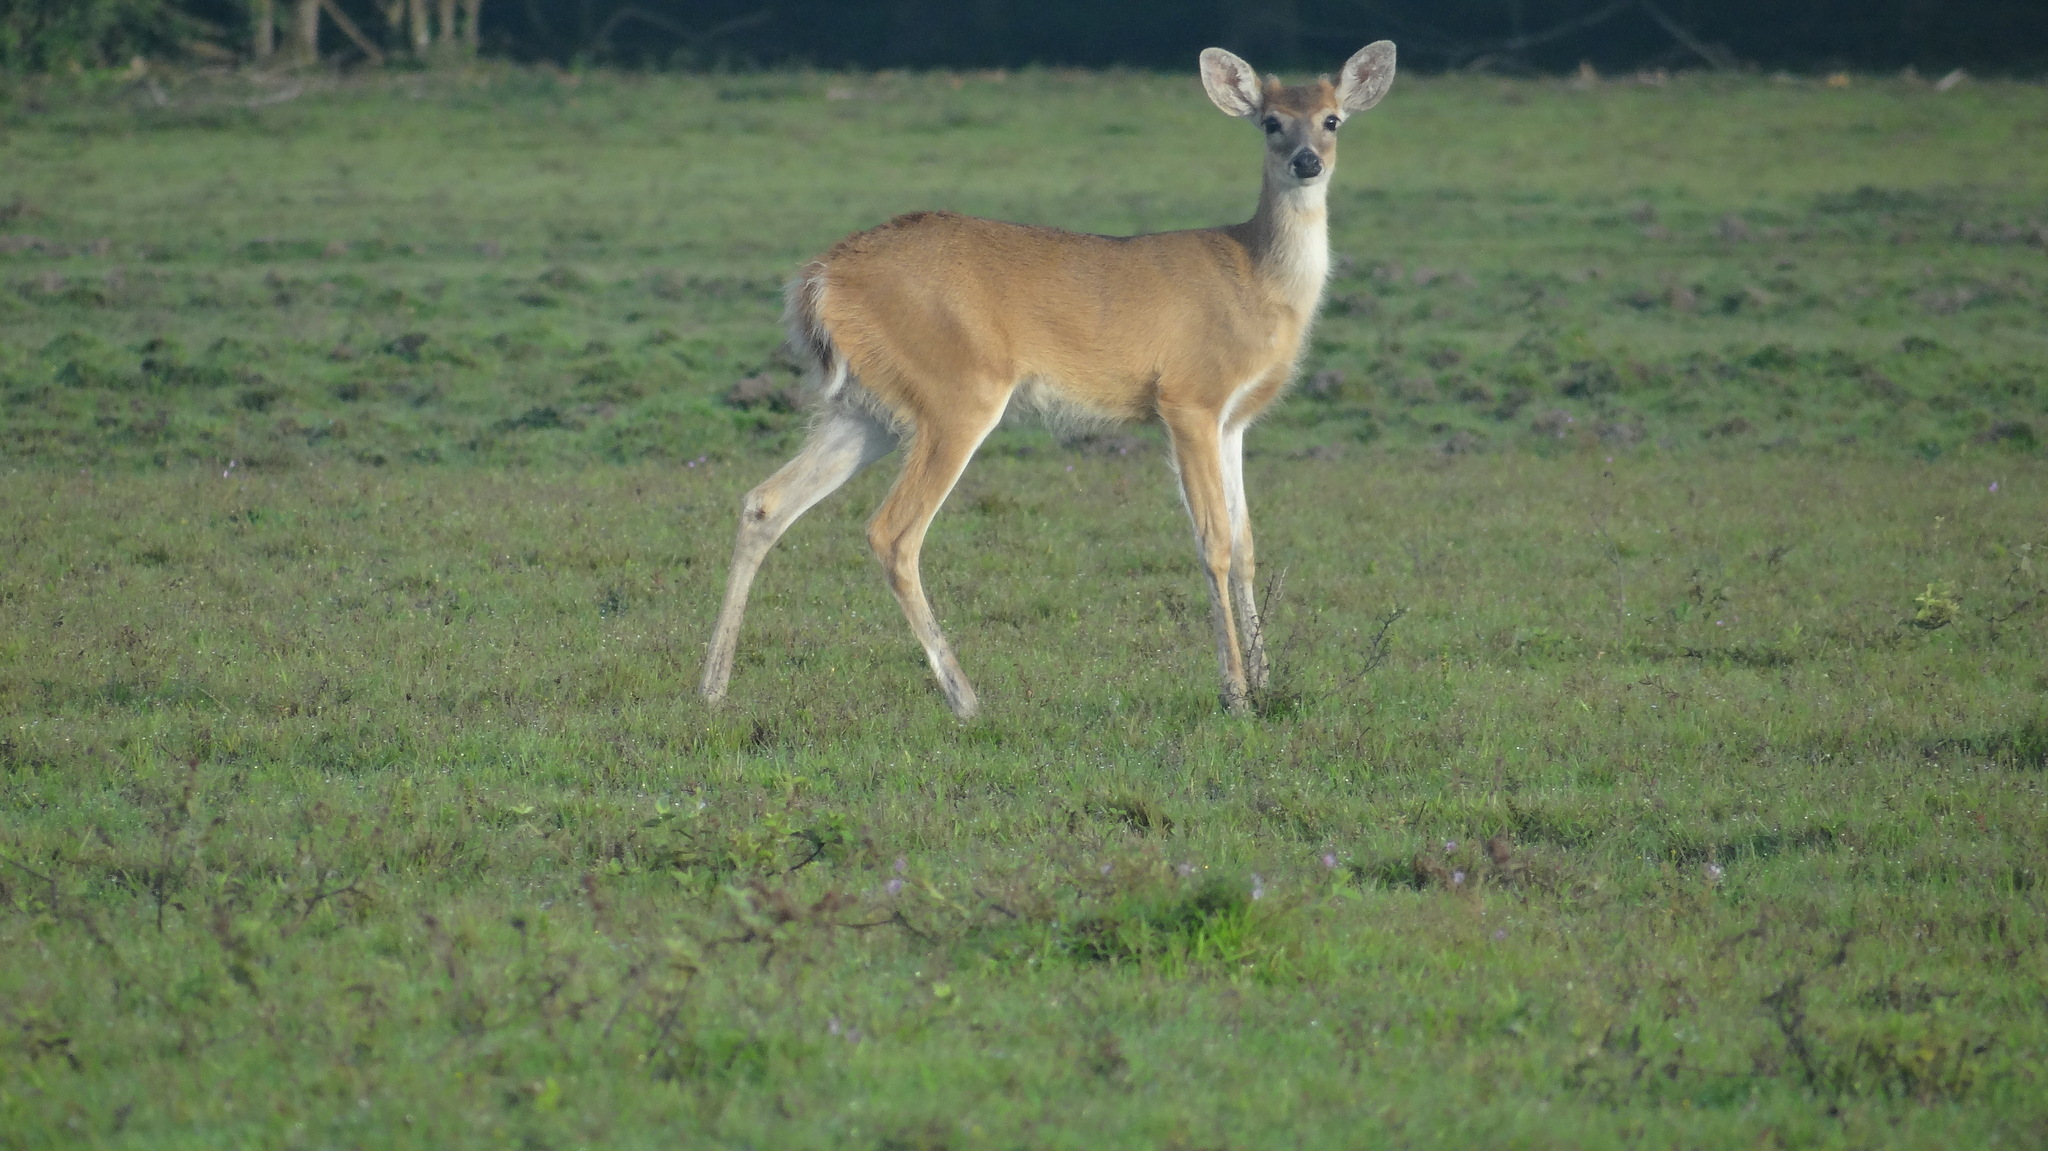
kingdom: Animalia
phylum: Chordata
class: Mammalia
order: Artiodactyla
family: Cervidae
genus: Odocoileus
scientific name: Odocoileus virginianus
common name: White-tailed deer
